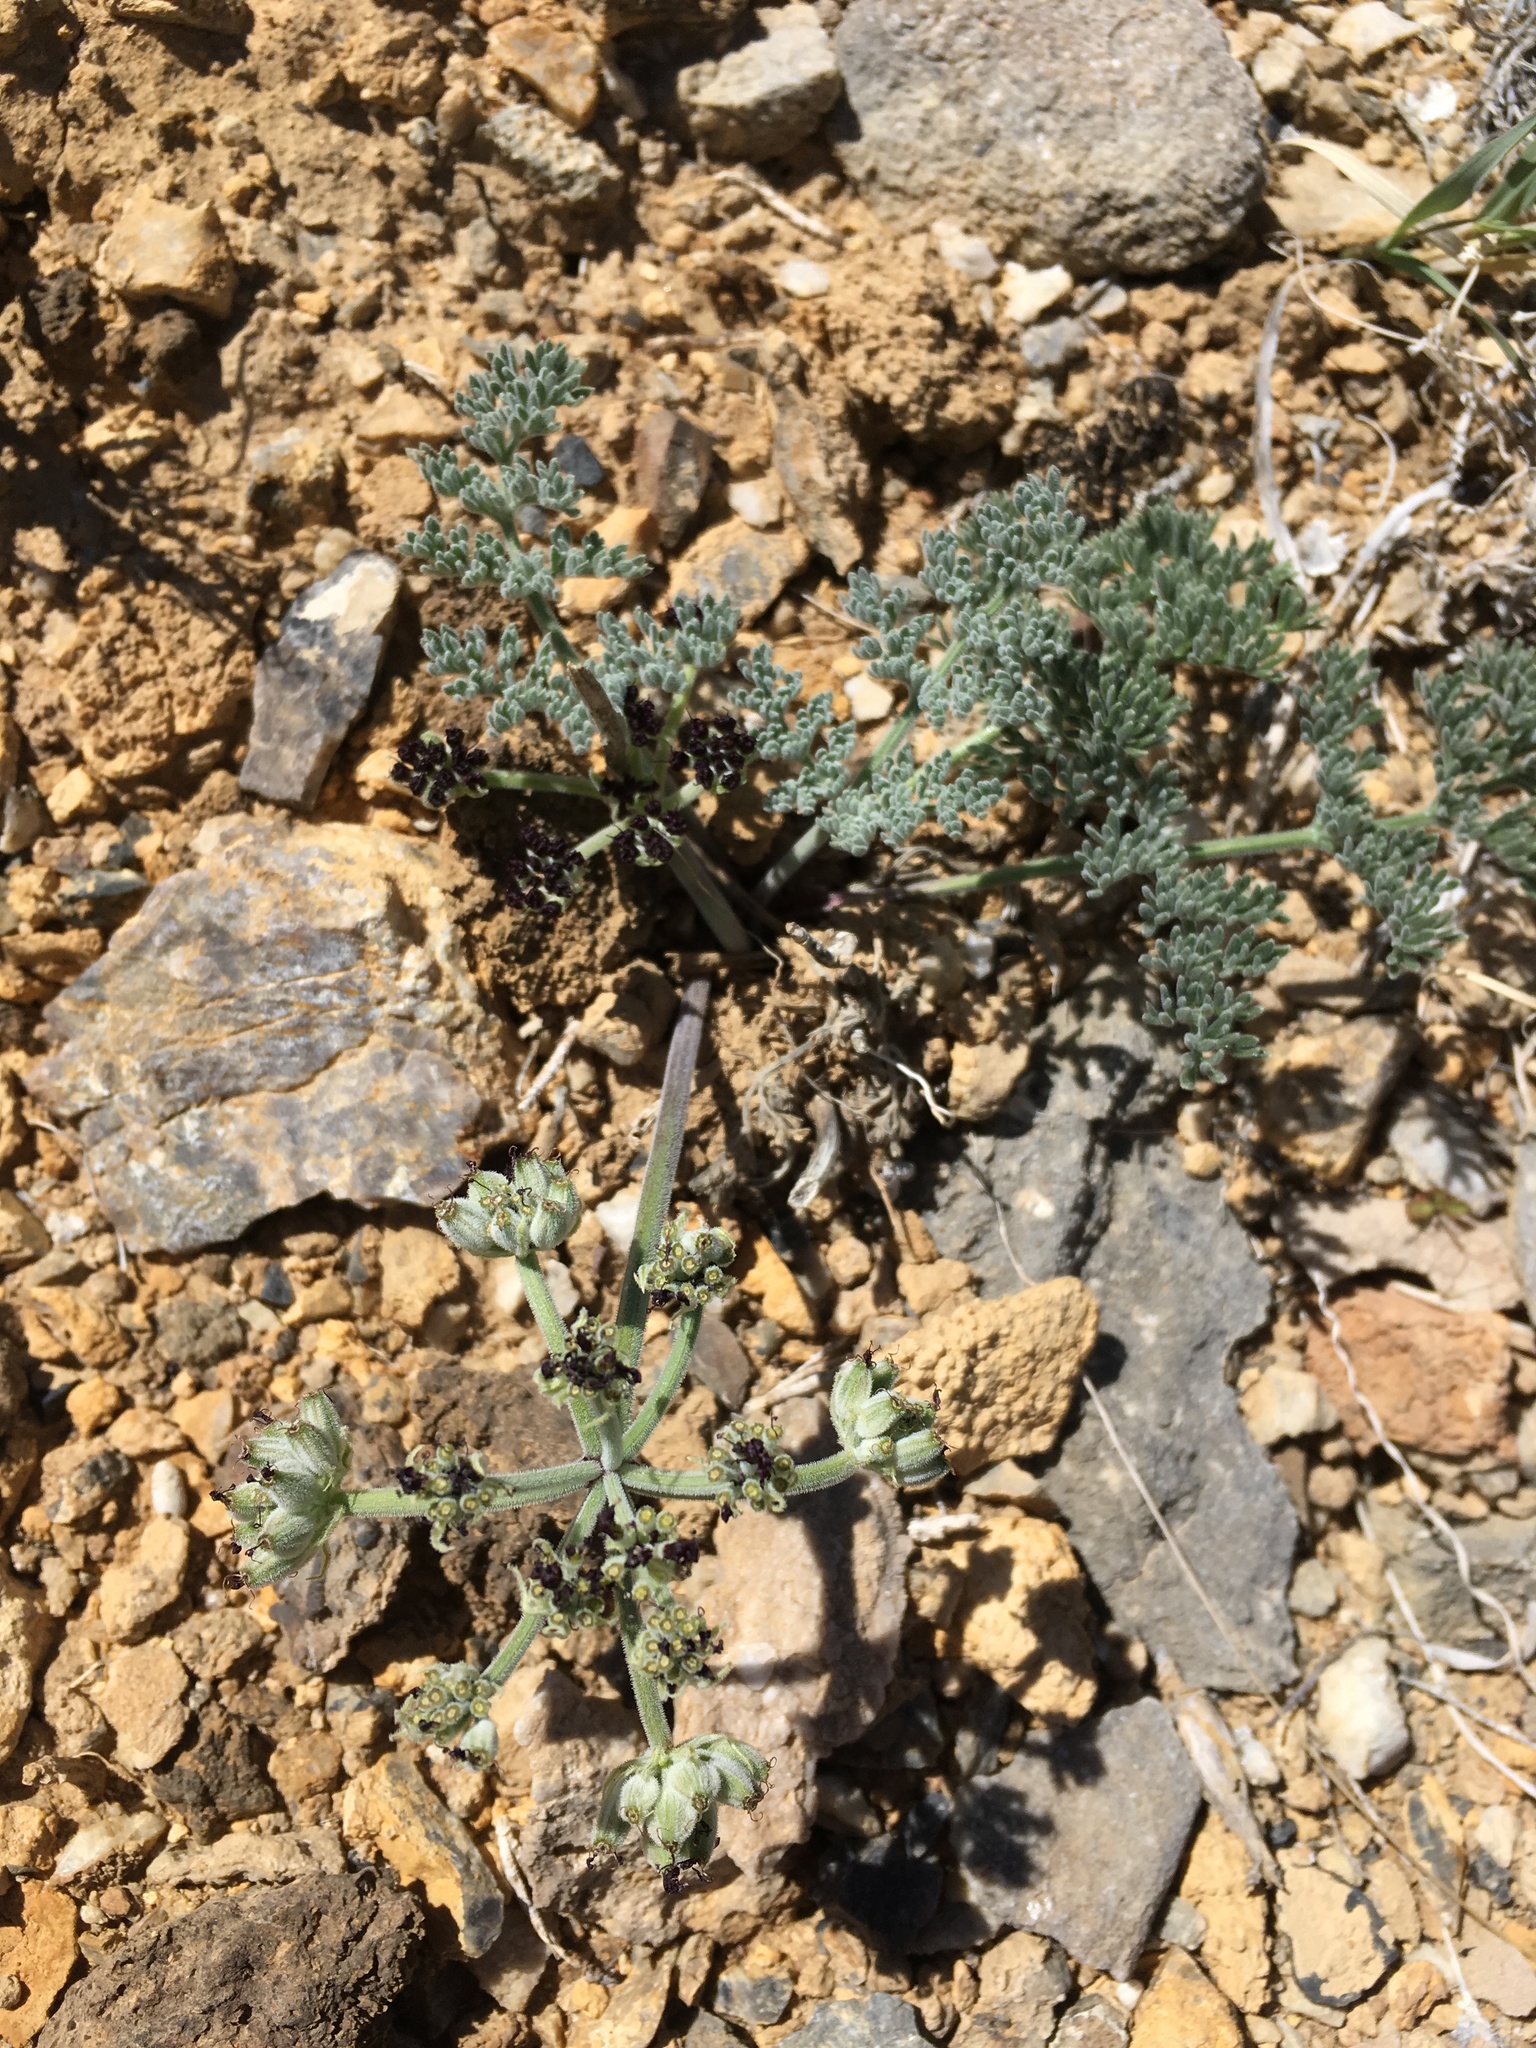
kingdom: Plantae
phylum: Tracheophyta
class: Magnoliopsida
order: Apiales
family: Apiaceae
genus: Lomatium
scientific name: Lomatium mohavense
